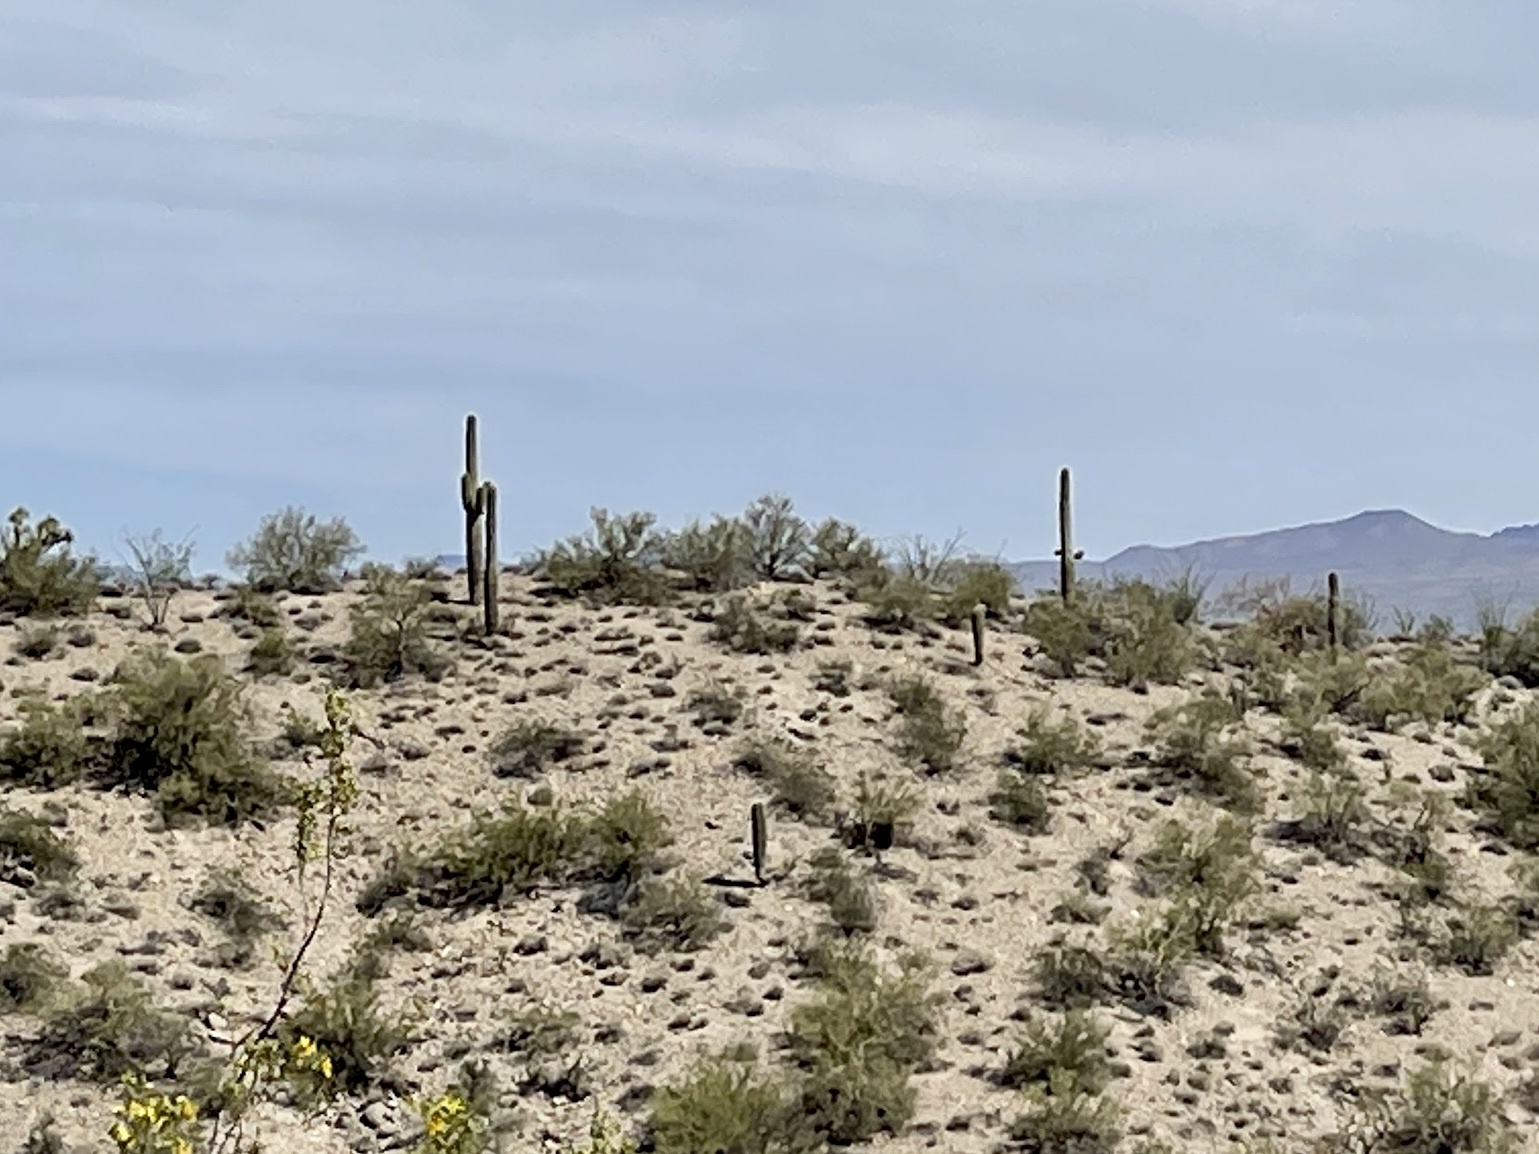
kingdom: Plantae
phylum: Tracheophyta
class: Magnoliopsida
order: Caryophyllales
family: Cactaceae
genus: Carnegiea
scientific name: Carnegiea gigantea
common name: Saguaro
